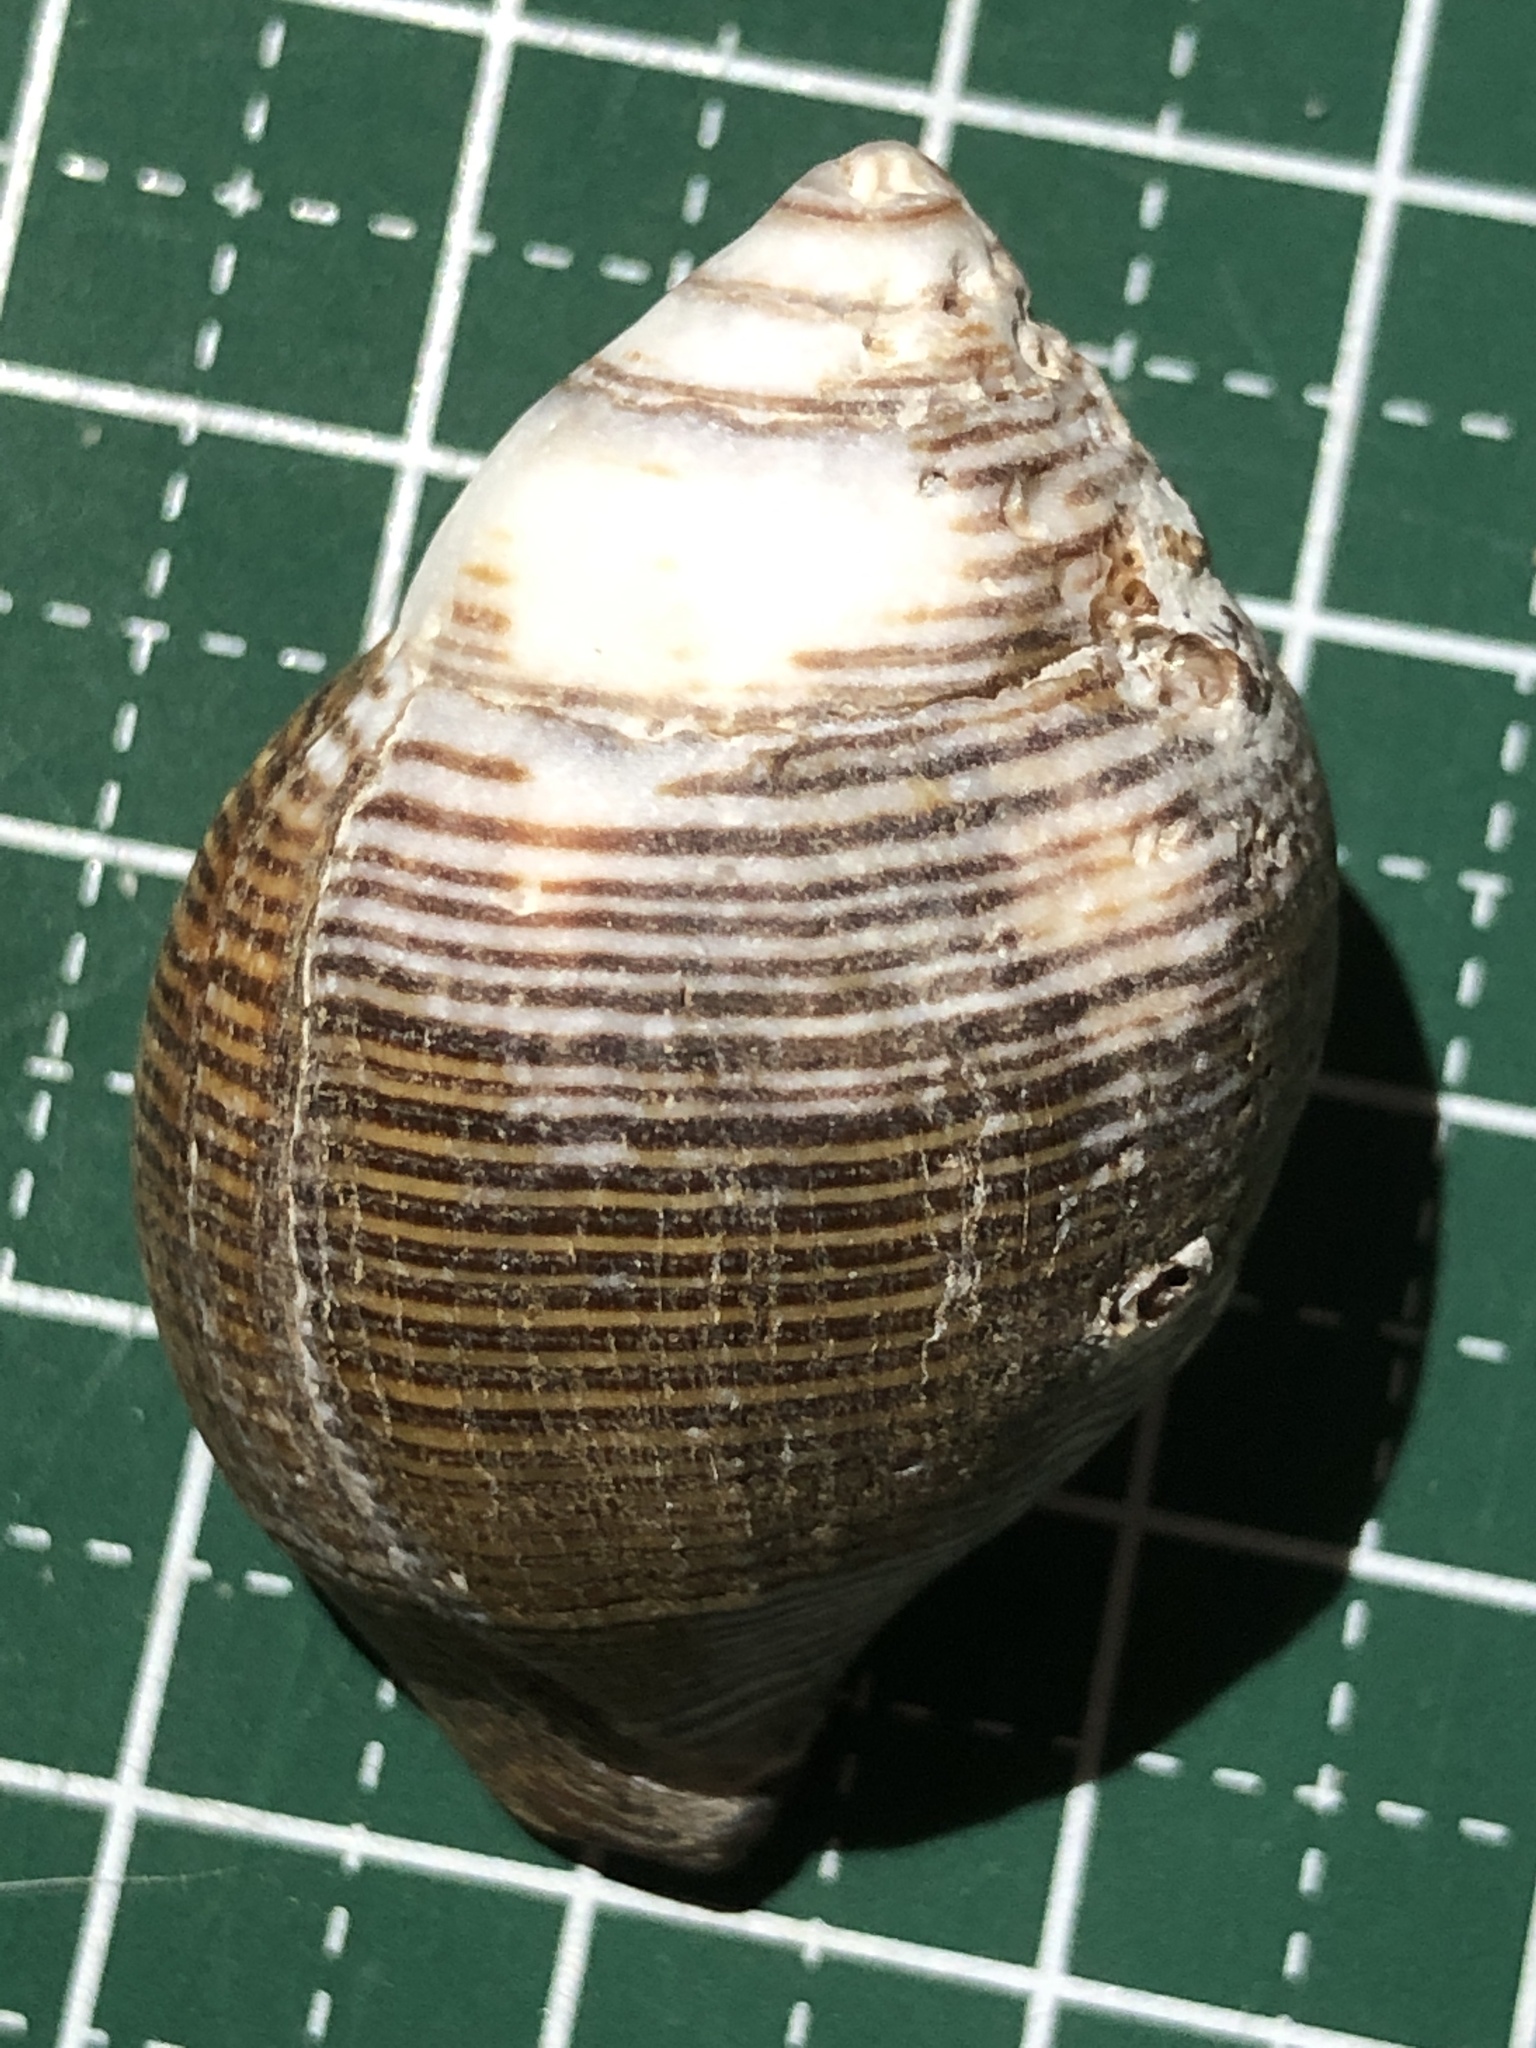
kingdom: Animalia
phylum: Mollusca
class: Gastropoda
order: Neogastropoda
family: Fasciolariidae
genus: Latirolagena
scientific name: Latirolagena smaragdulus
